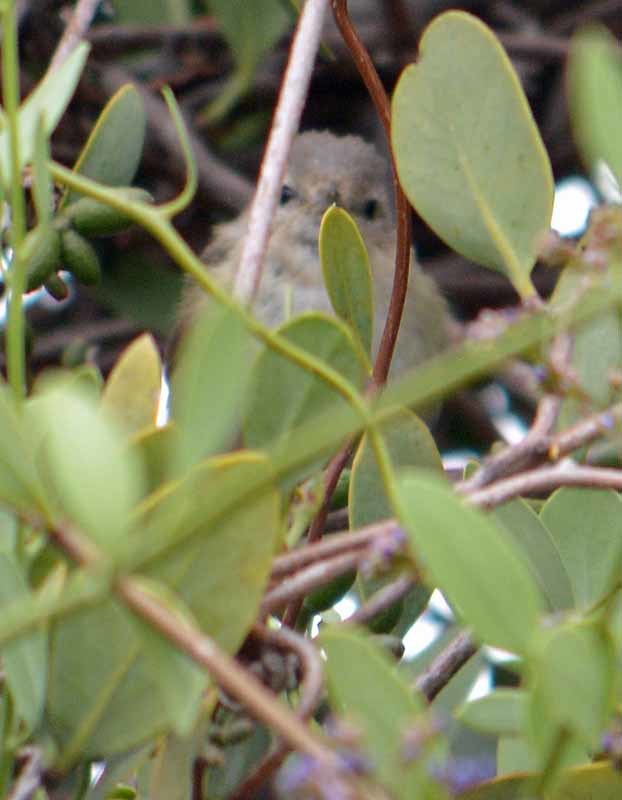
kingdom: Animalia
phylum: Chordata
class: Aves
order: Passeriformes
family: Vireonidae
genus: Vireo
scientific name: Vireo gilvus
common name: Warbling vireo
